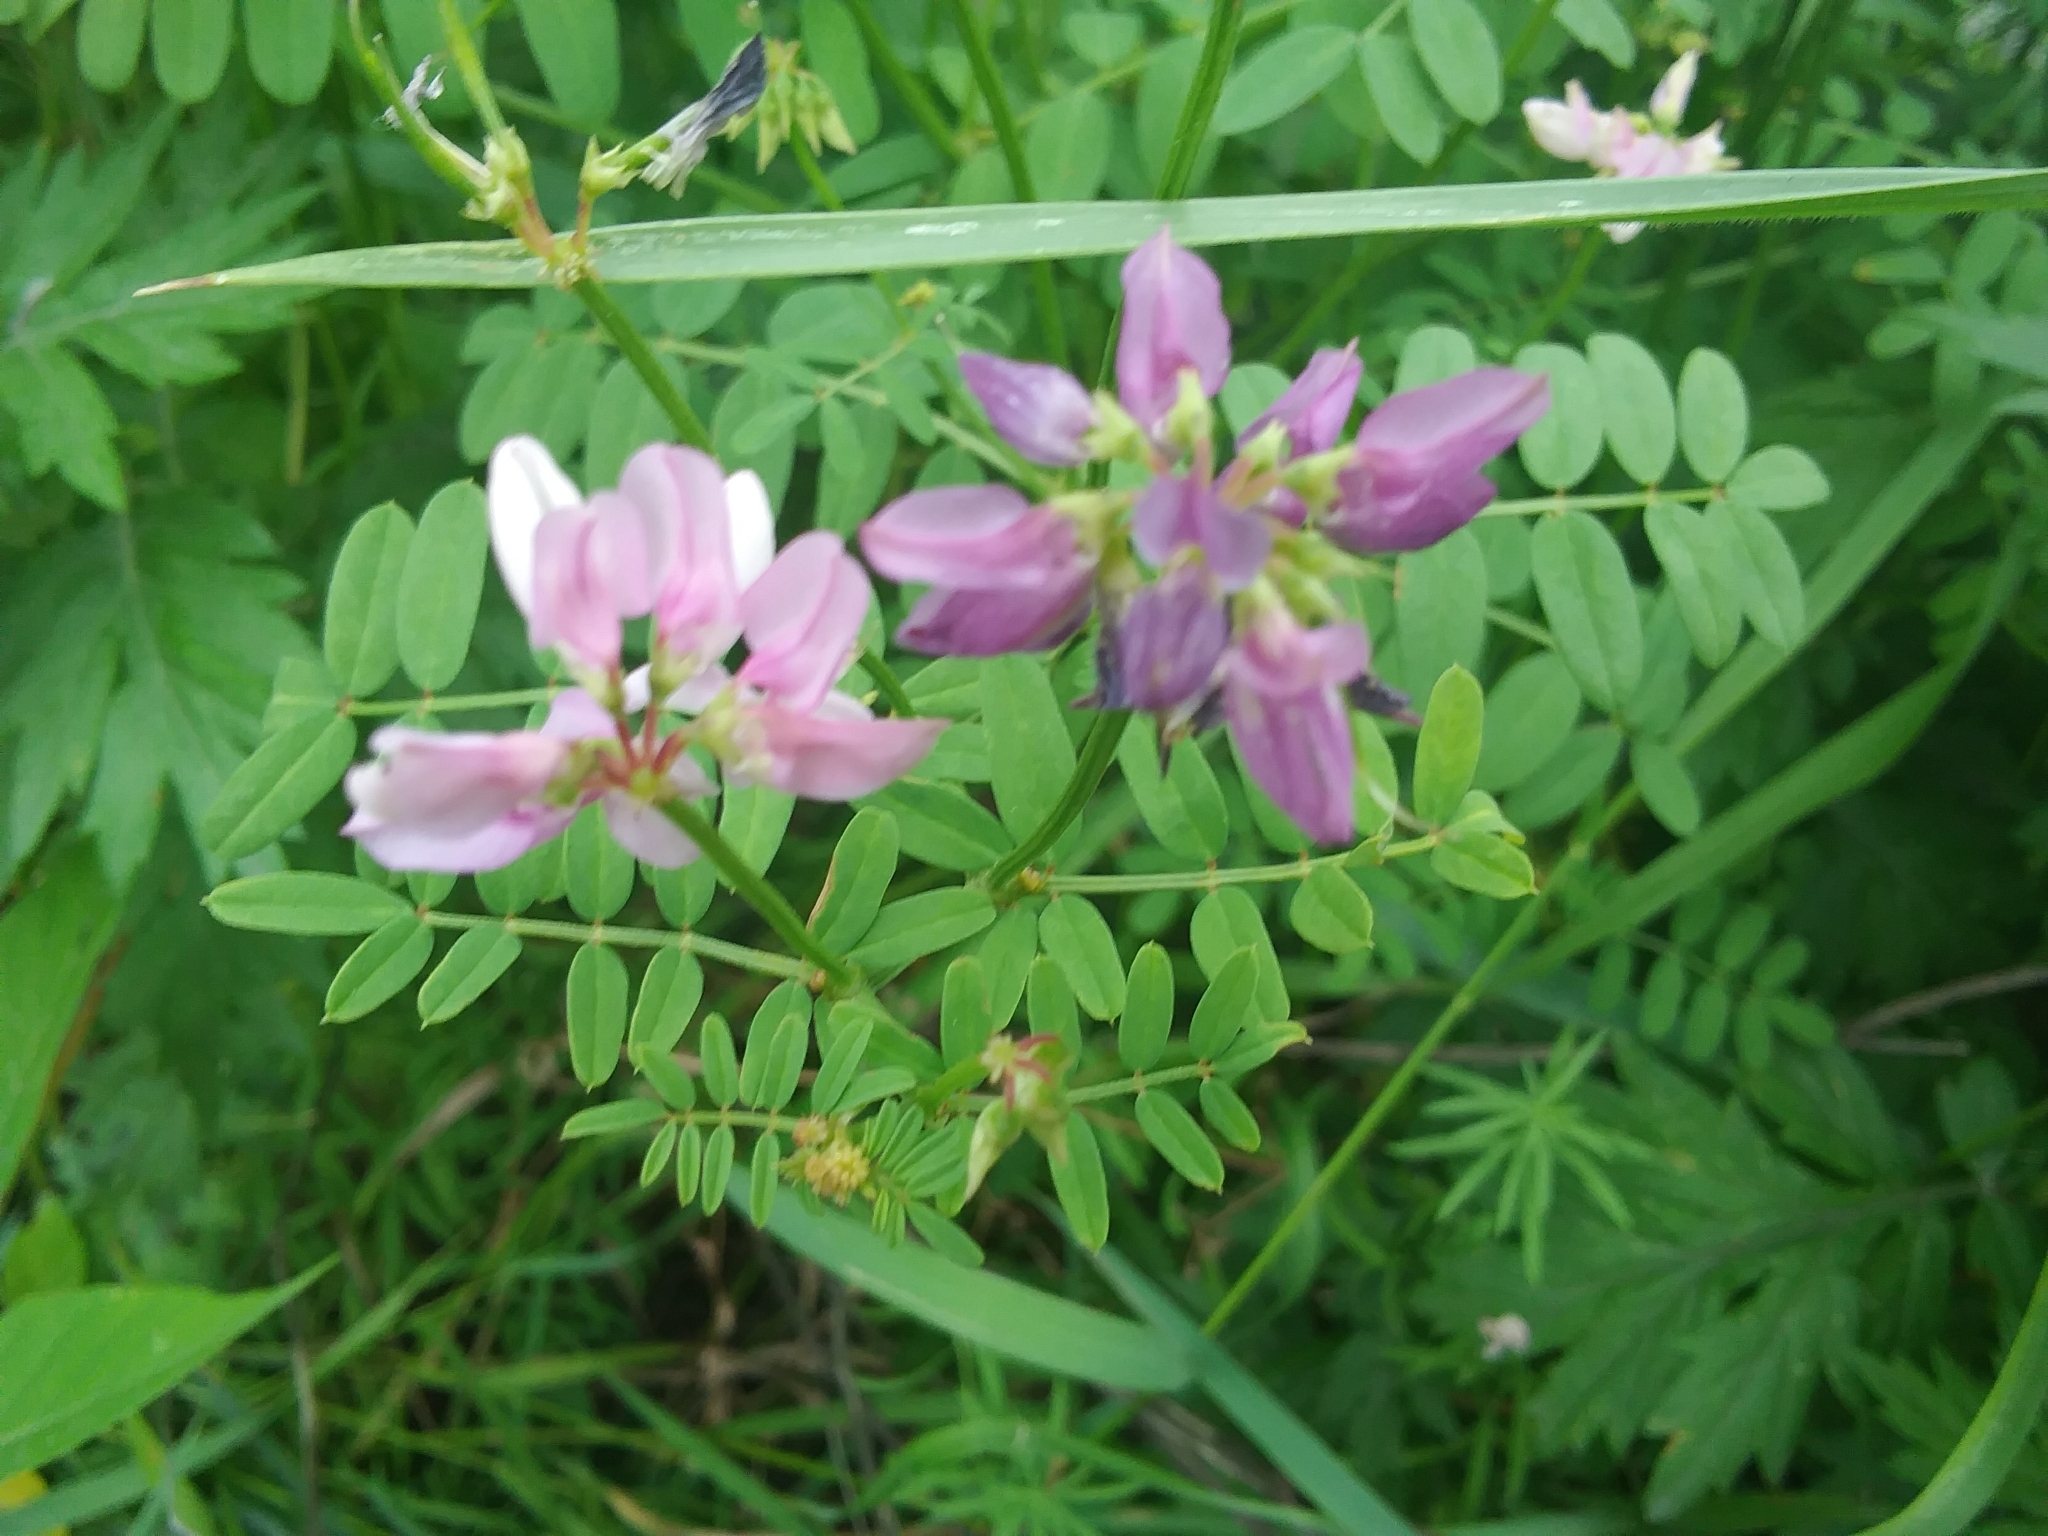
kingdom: Plantae
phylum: Tracheophyta
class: Magnoliopsida
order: Fabales
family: Fabaceae
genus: Coronilla
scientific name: Coronilla varia
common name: Crownvetch
